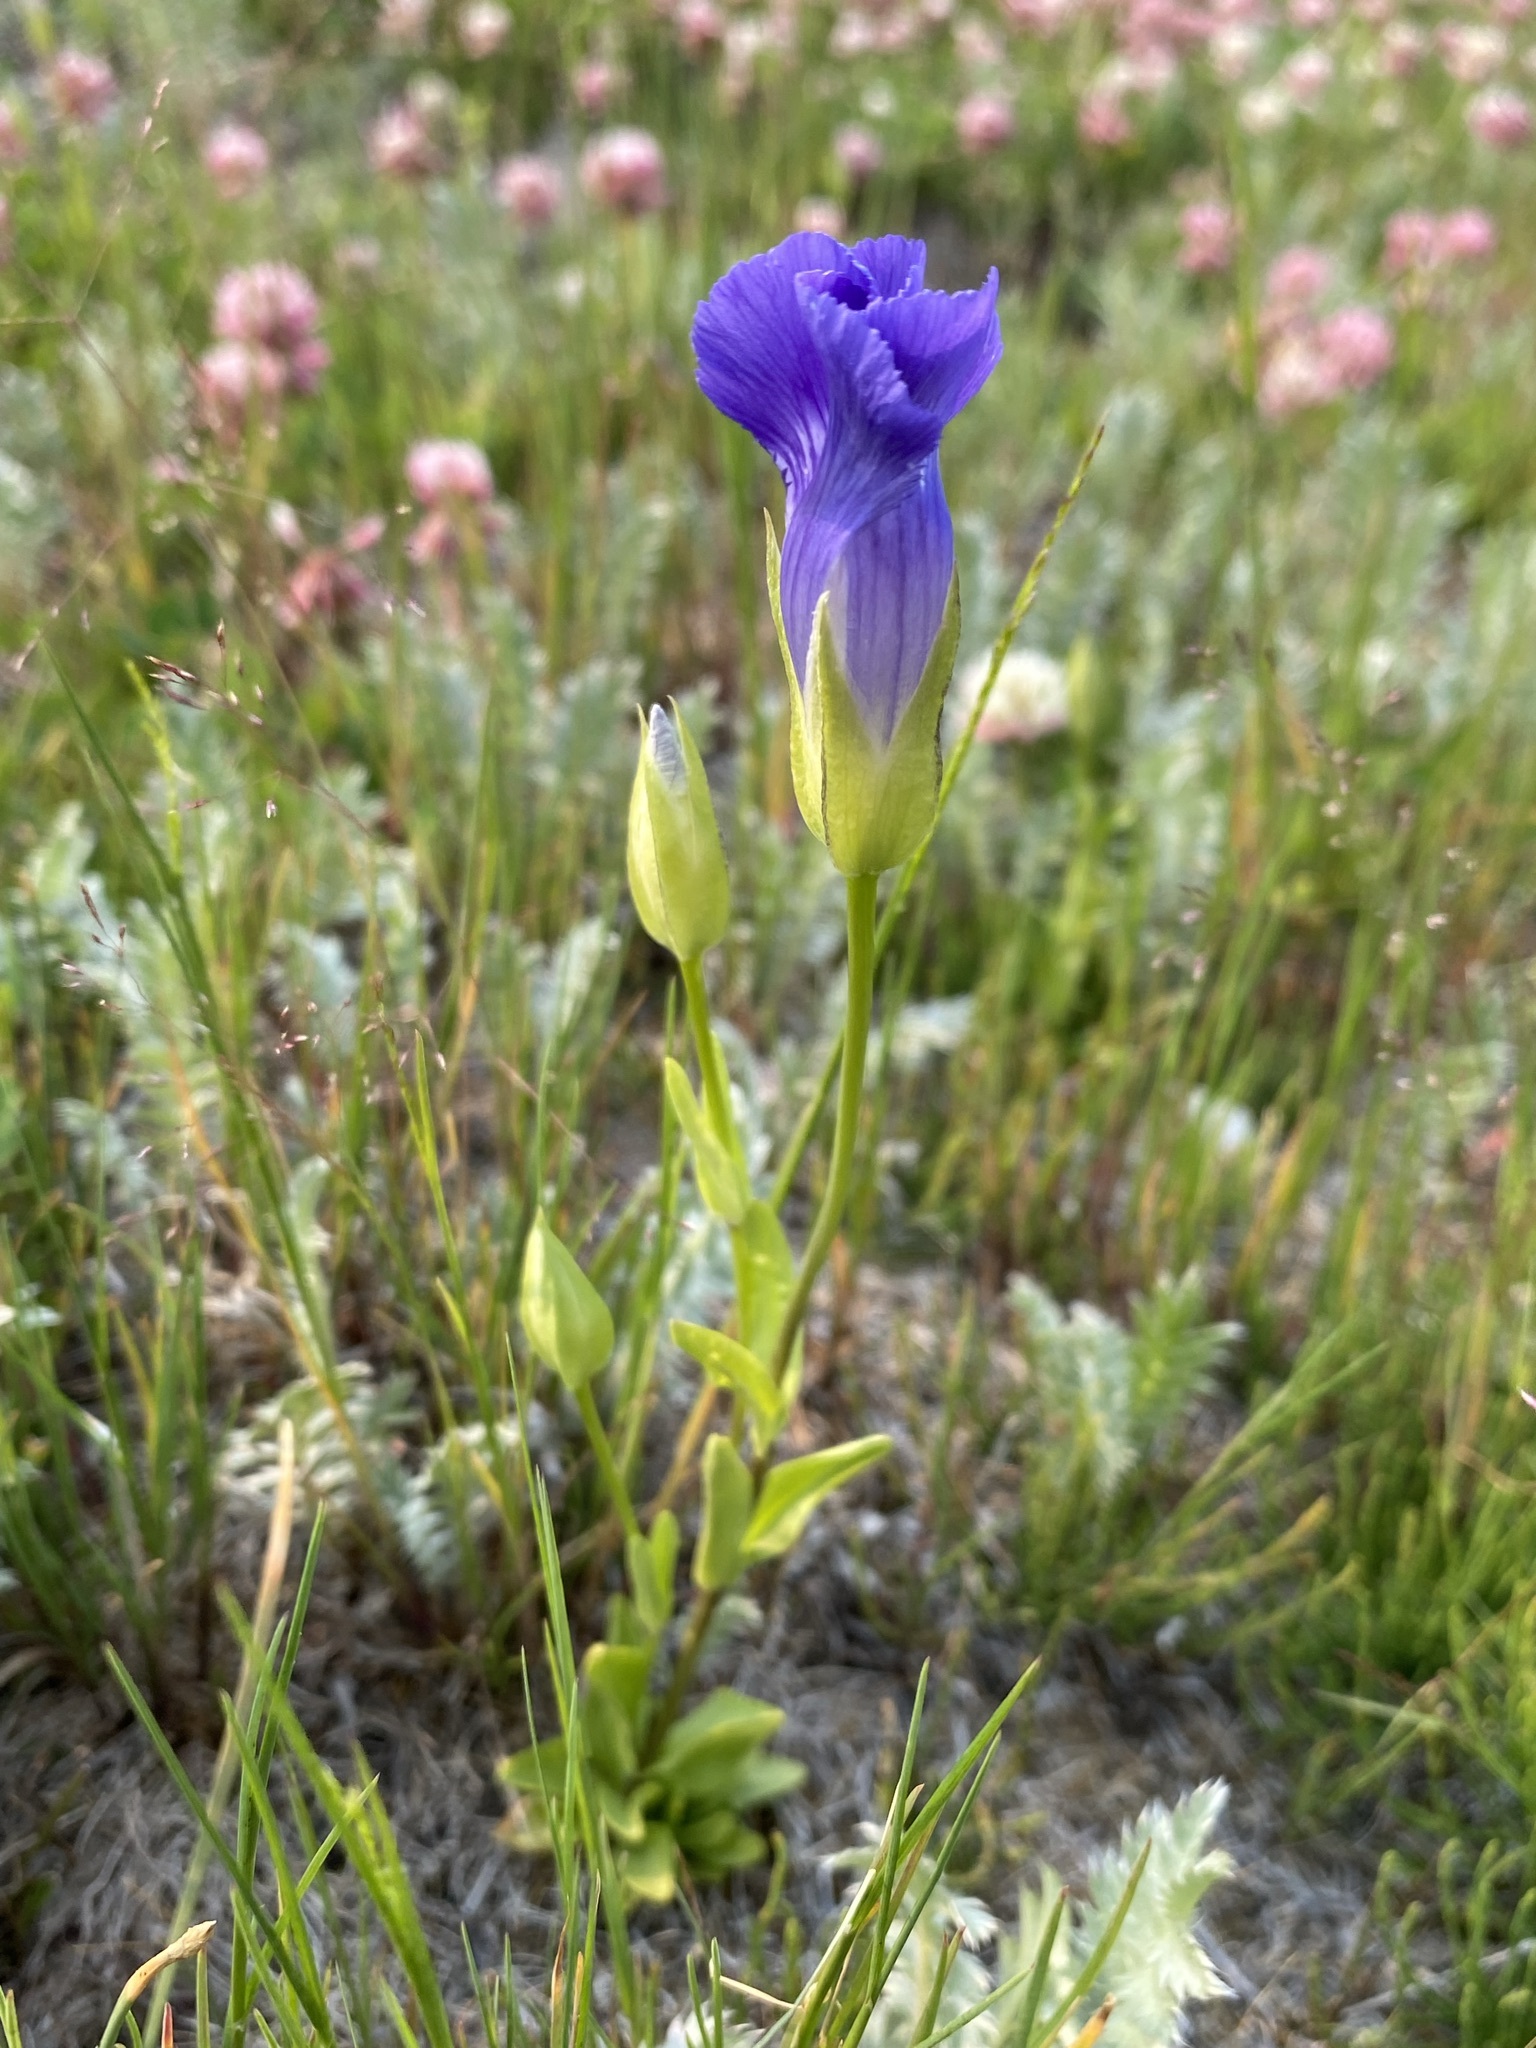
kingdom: Plantae
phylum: Tracheophyta
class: Magnoliopsida
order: Gentianales
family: Gentianaceae
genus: Gentianopsis
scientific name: Gentianopsis thermalis
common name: Rocky mountain fringed-gentian
